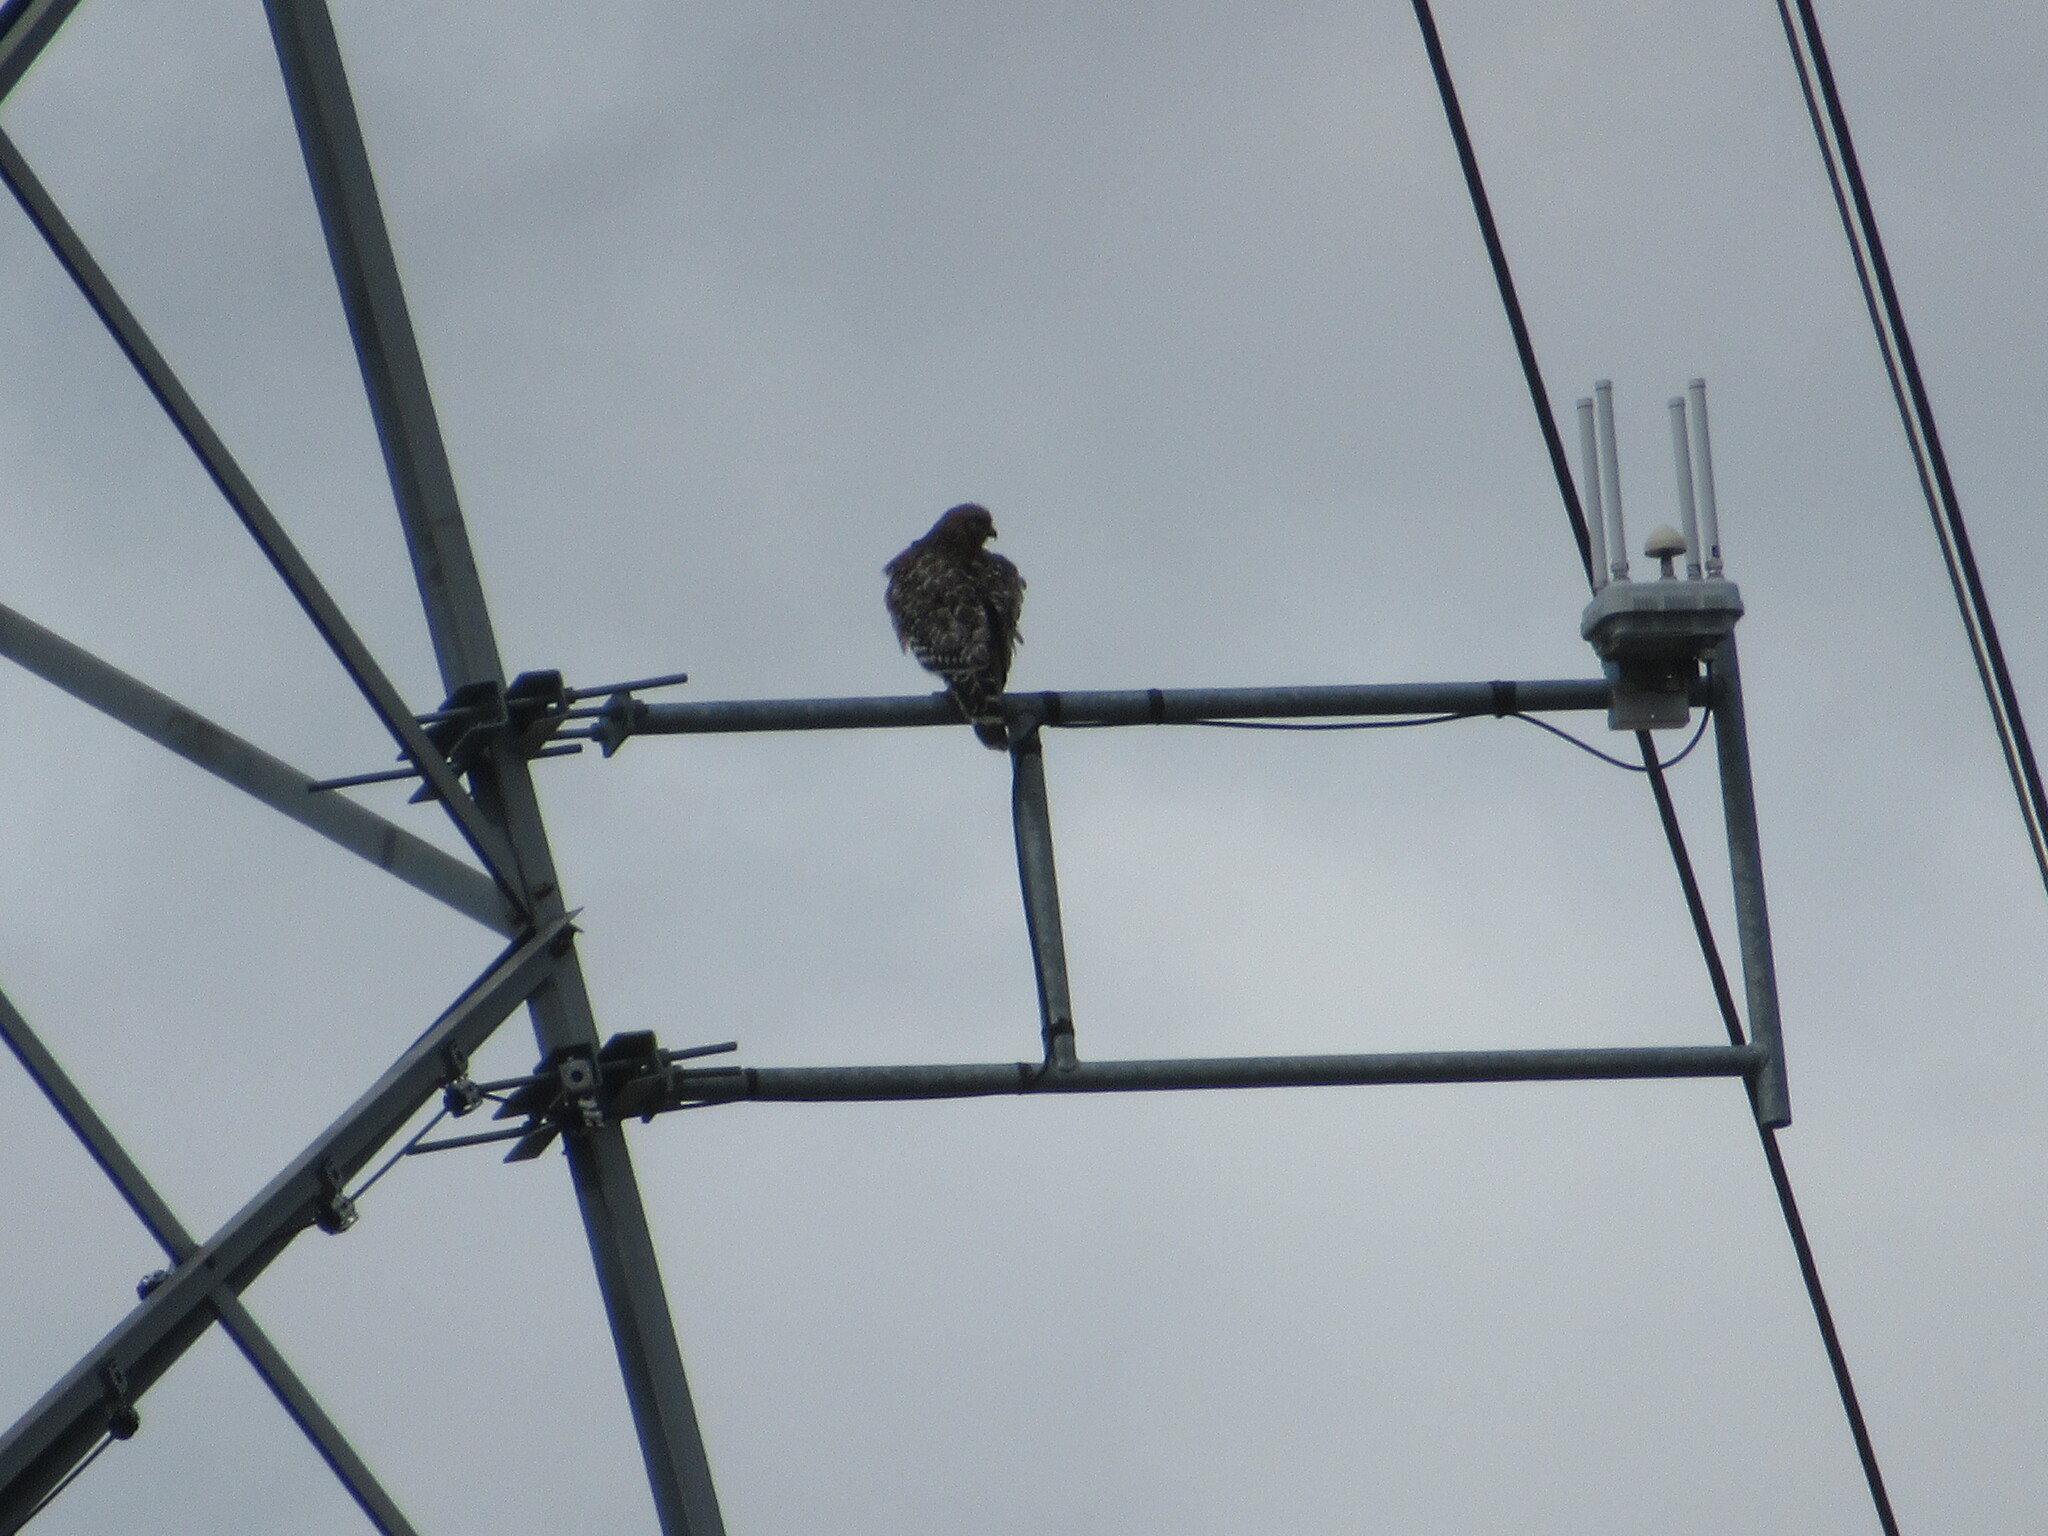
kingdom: Animalia
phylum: Chordata
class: Aves
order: Accipitriformes
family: Accipitridae
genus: Buteo
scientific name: Buteo lineatus
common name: Red-shouldered hawk
